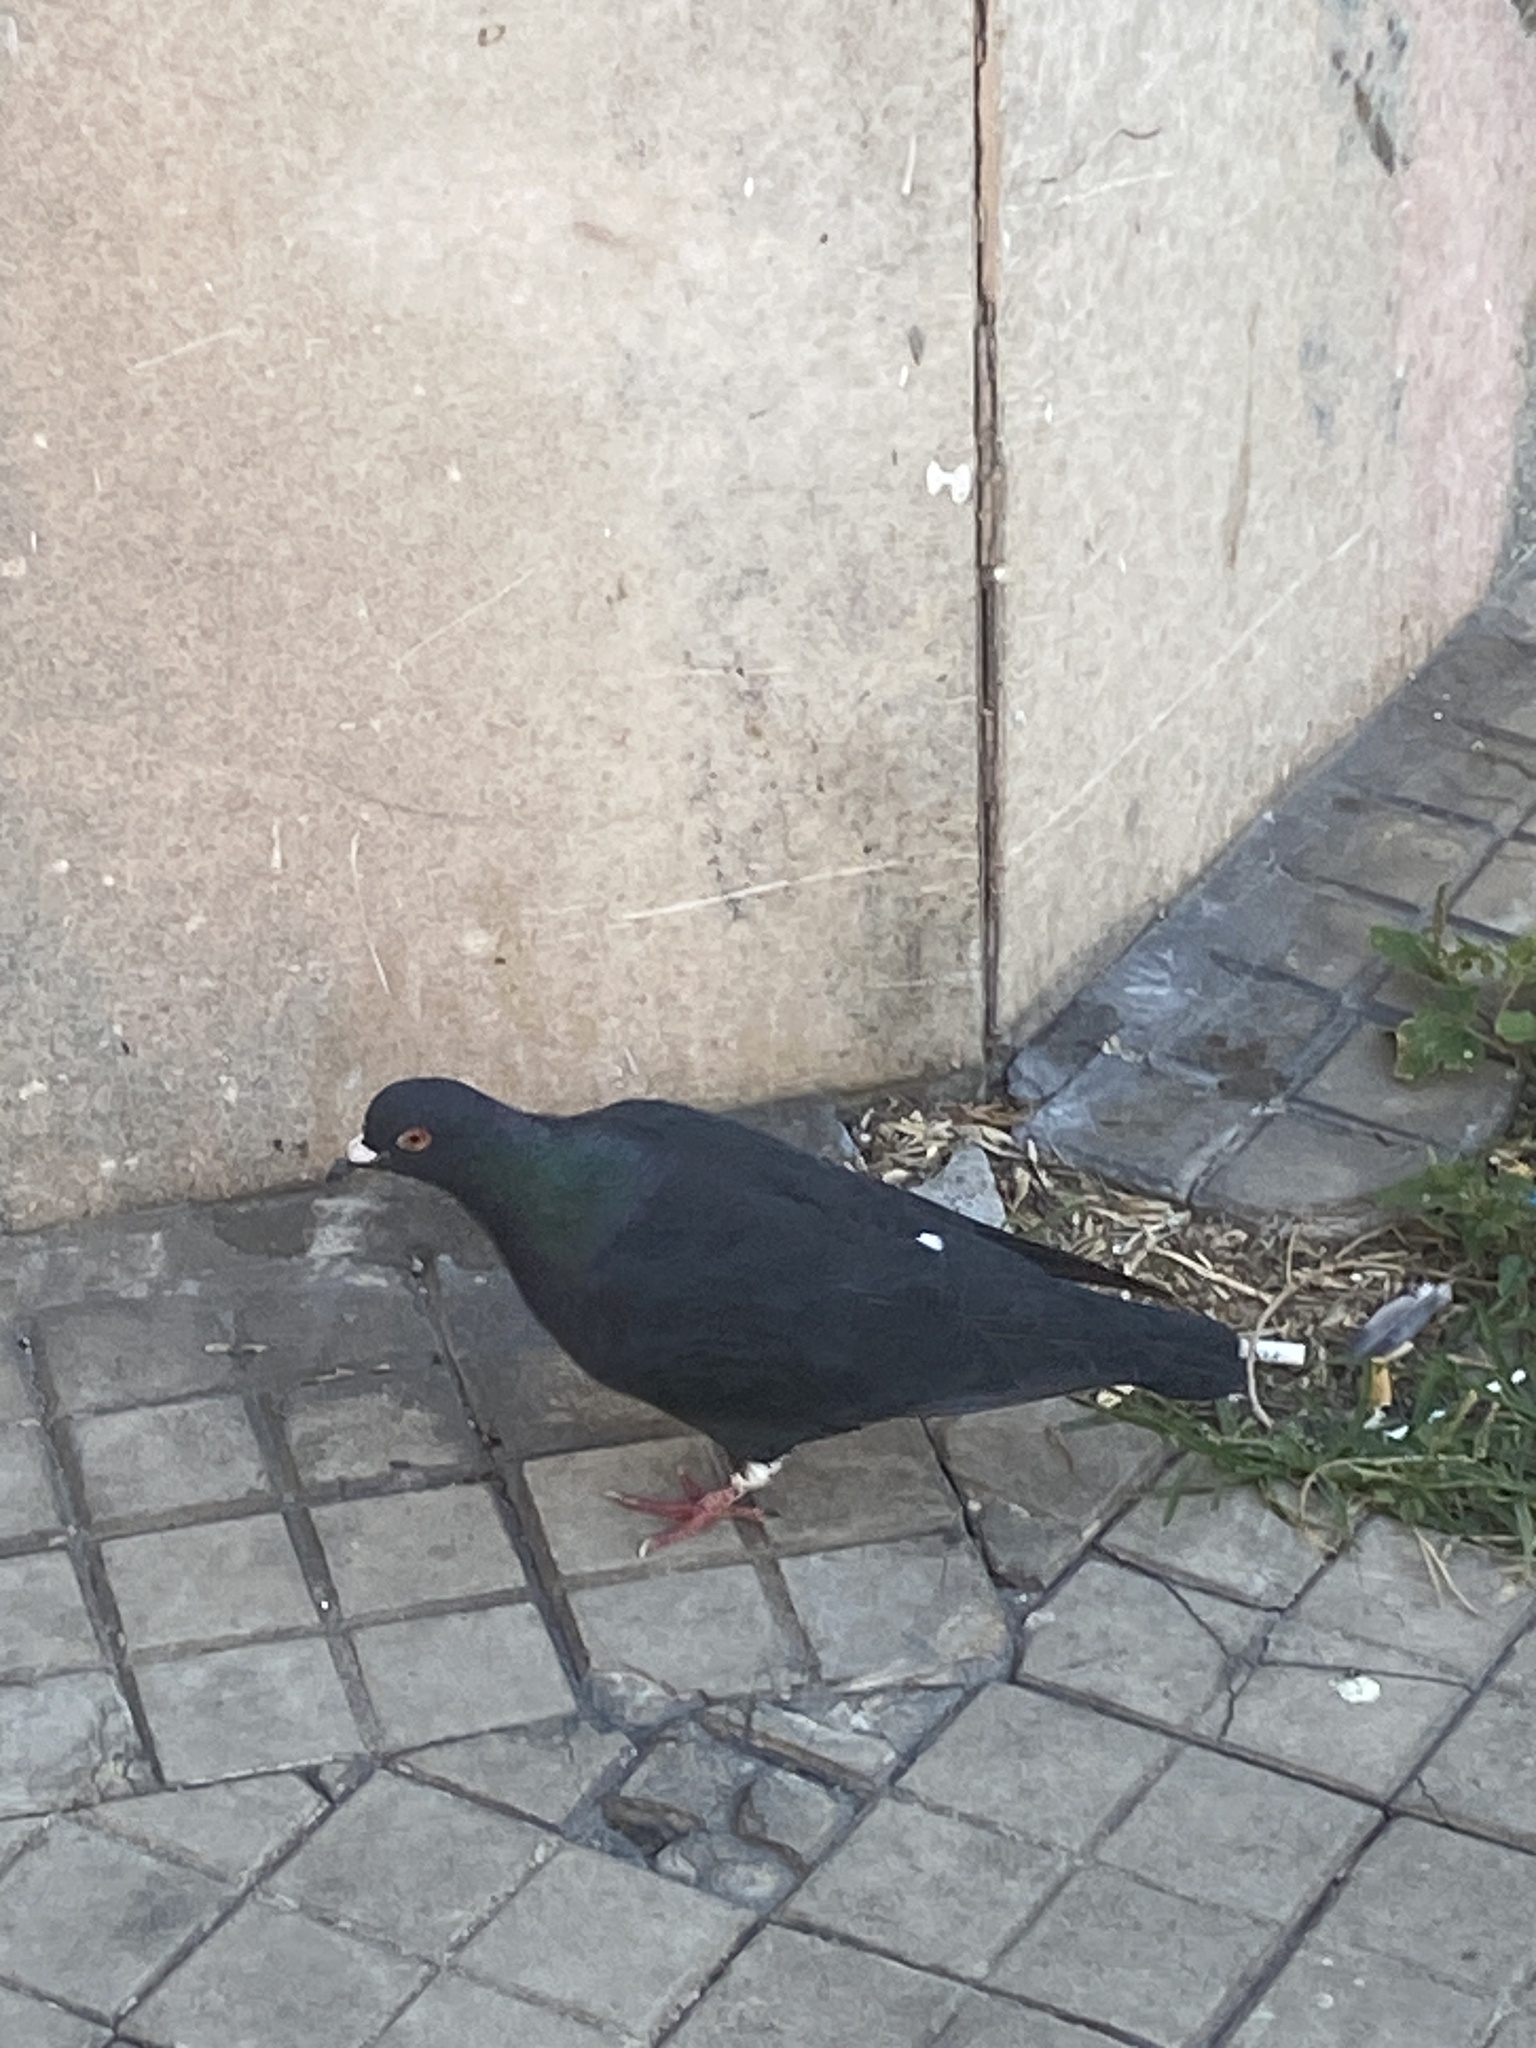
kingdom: Animalia
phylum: Chordata
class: Aves
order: Columbiformes
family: Columbidae
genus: Columba
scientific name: Columba livia
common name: Rock pigeon
